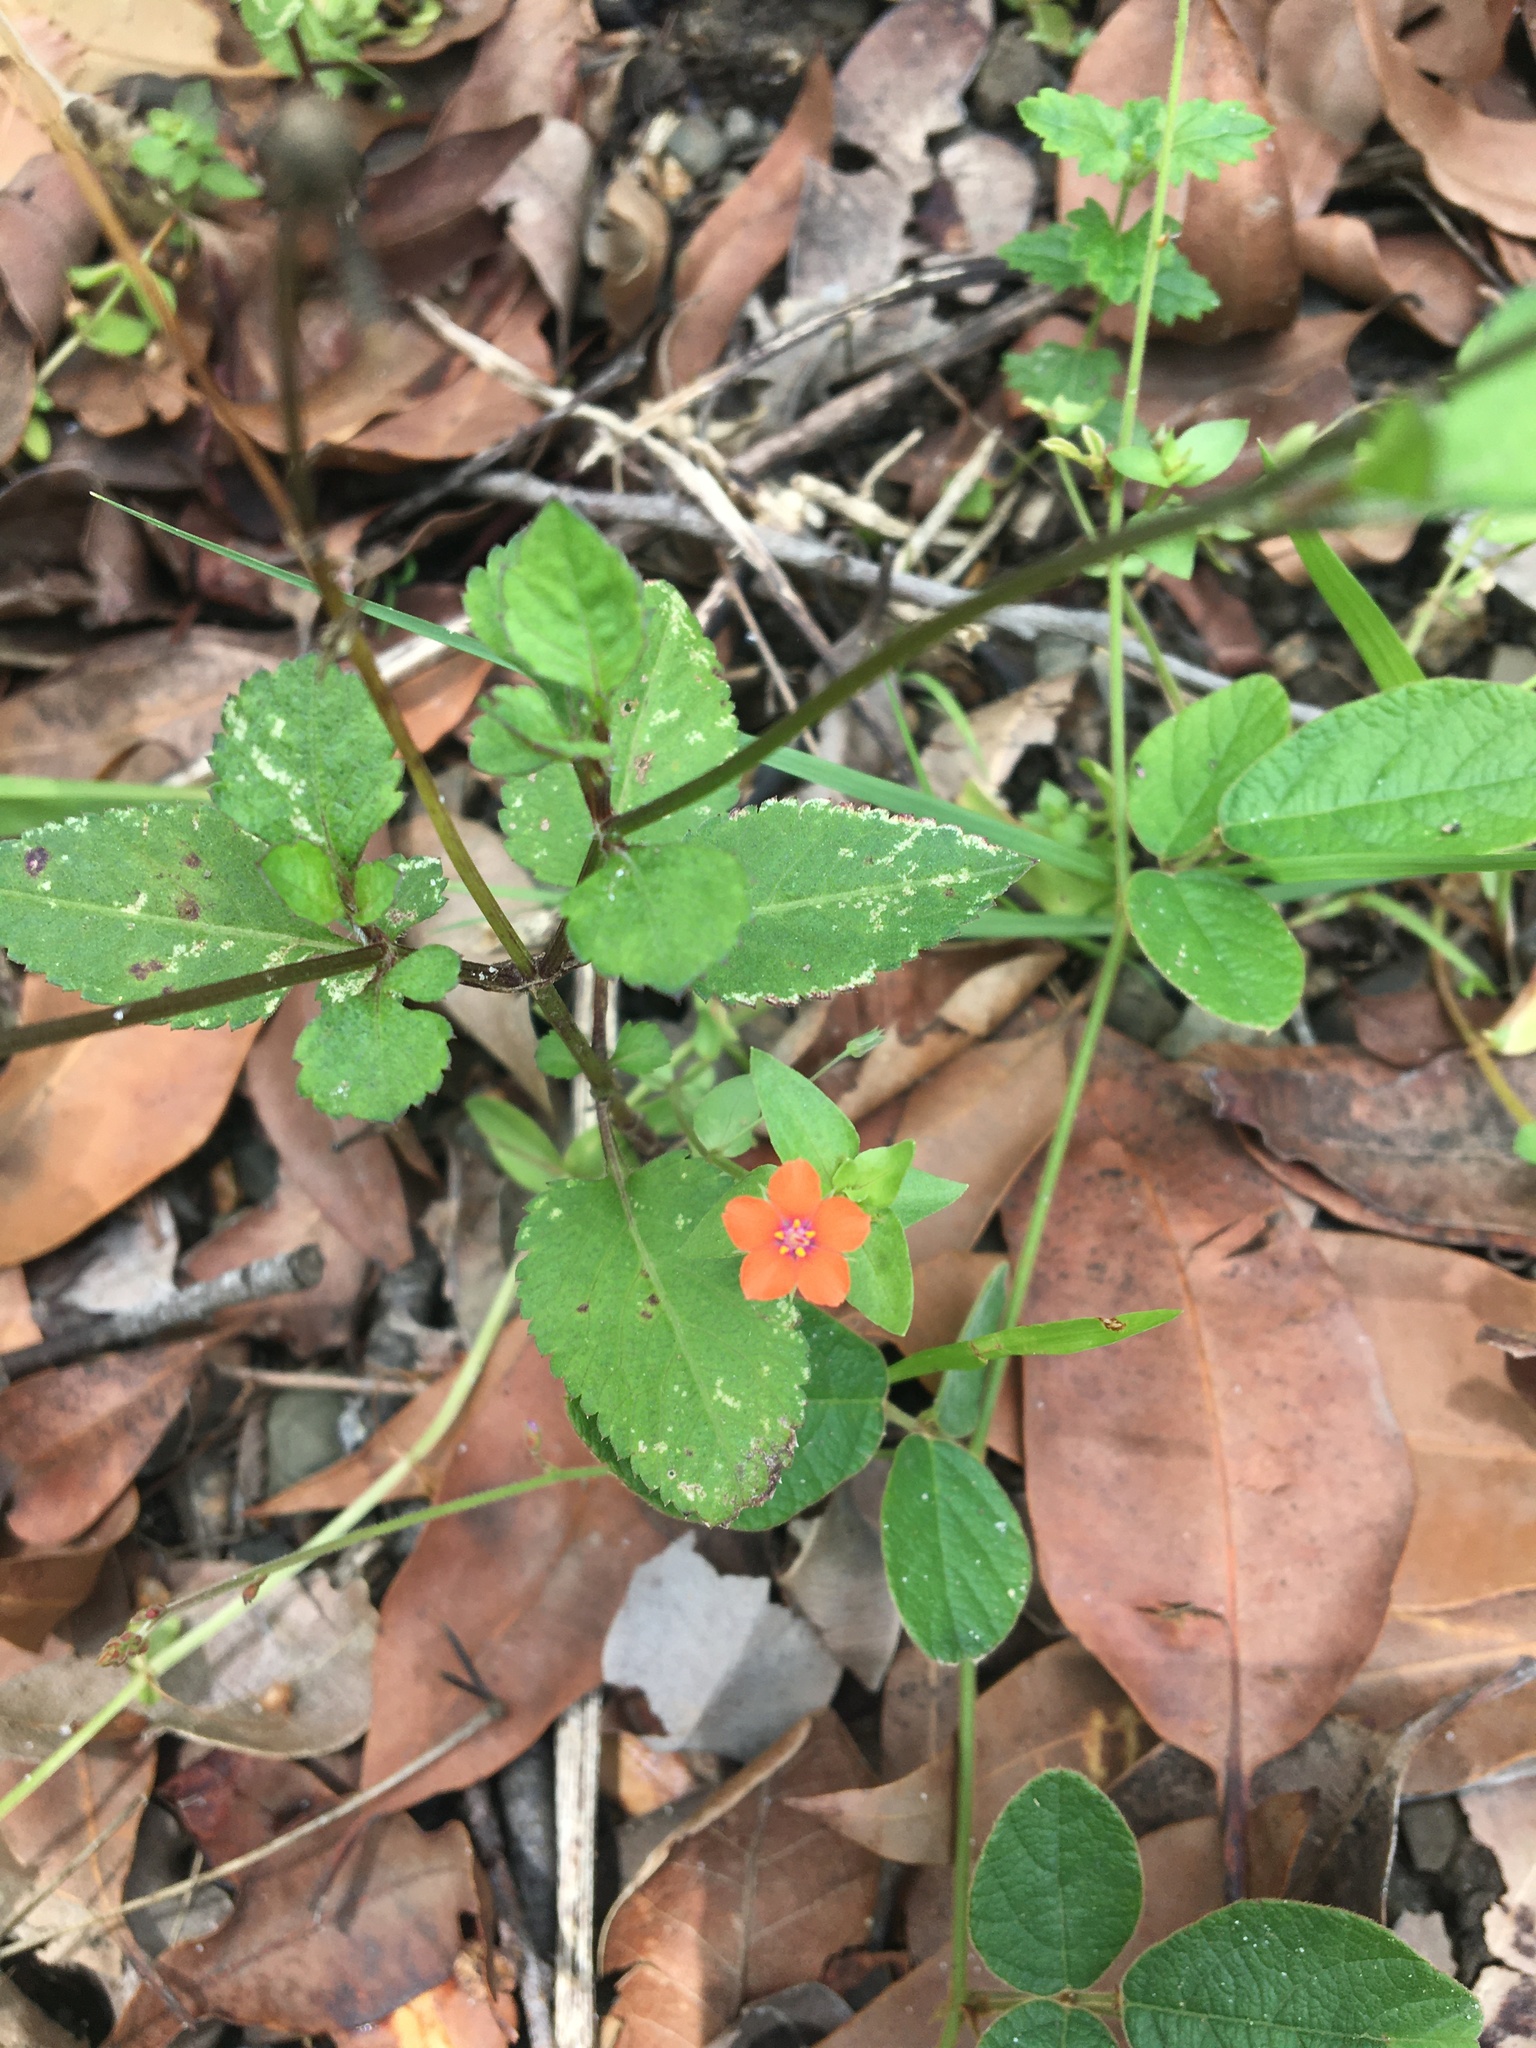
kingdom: Plantae
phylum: Tracheophyta
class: Magnoliopsida
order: Ericales
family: Primulaceae
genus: Lysimachia
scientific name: Lysimachia arvensis
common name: Scarlet pimpernel
